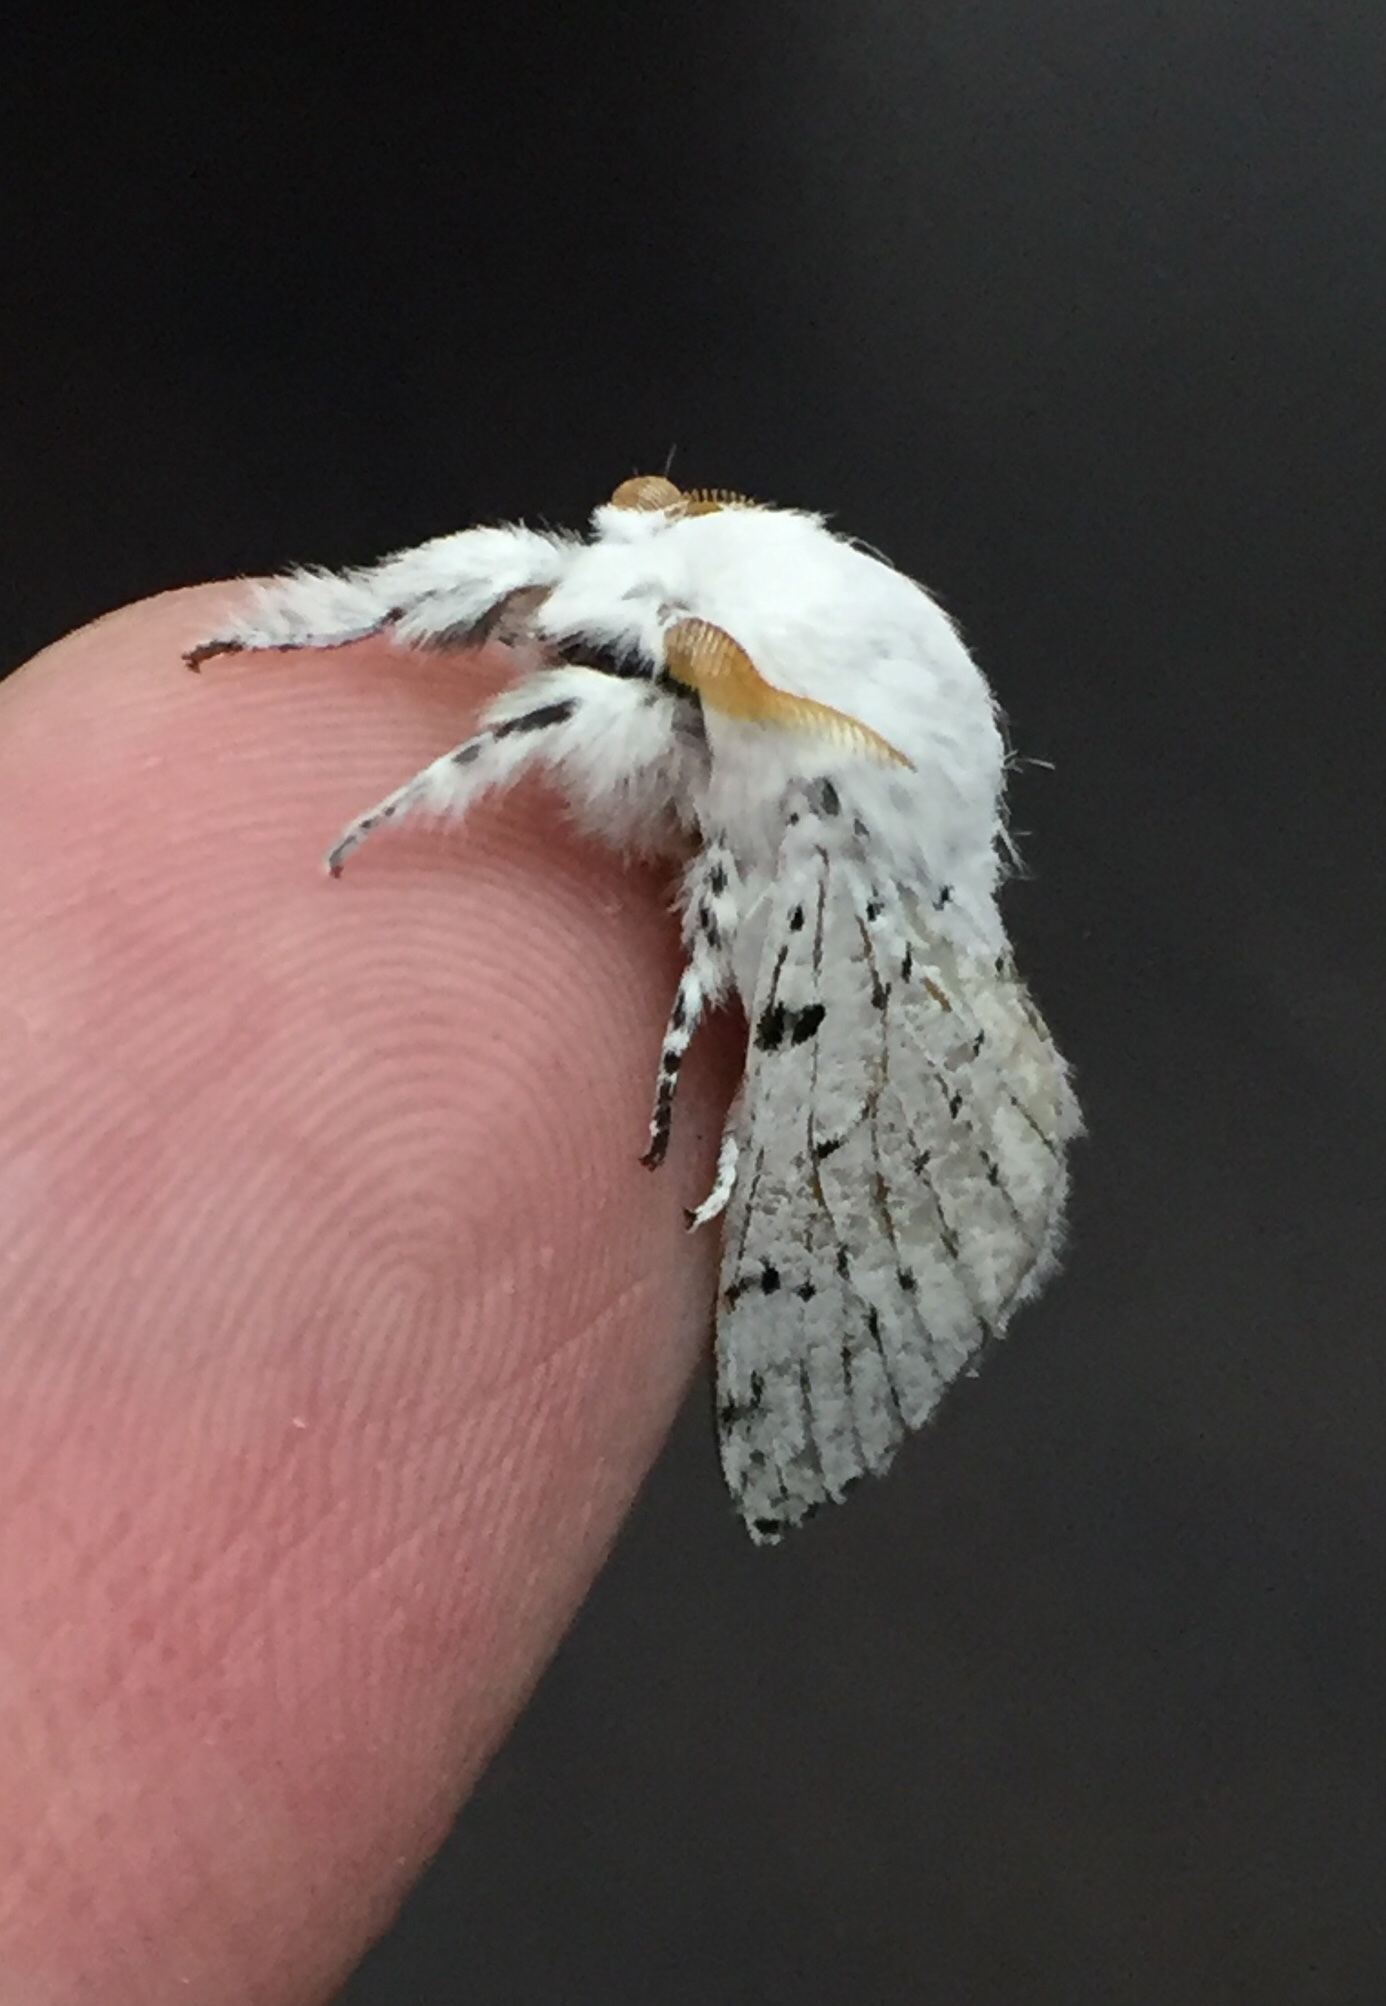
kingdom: Animalia
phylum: Arthropoda
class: Insecta
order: Lepidoptera
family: Lasiocampidae
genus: Artace
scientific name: Artace cribrarius
